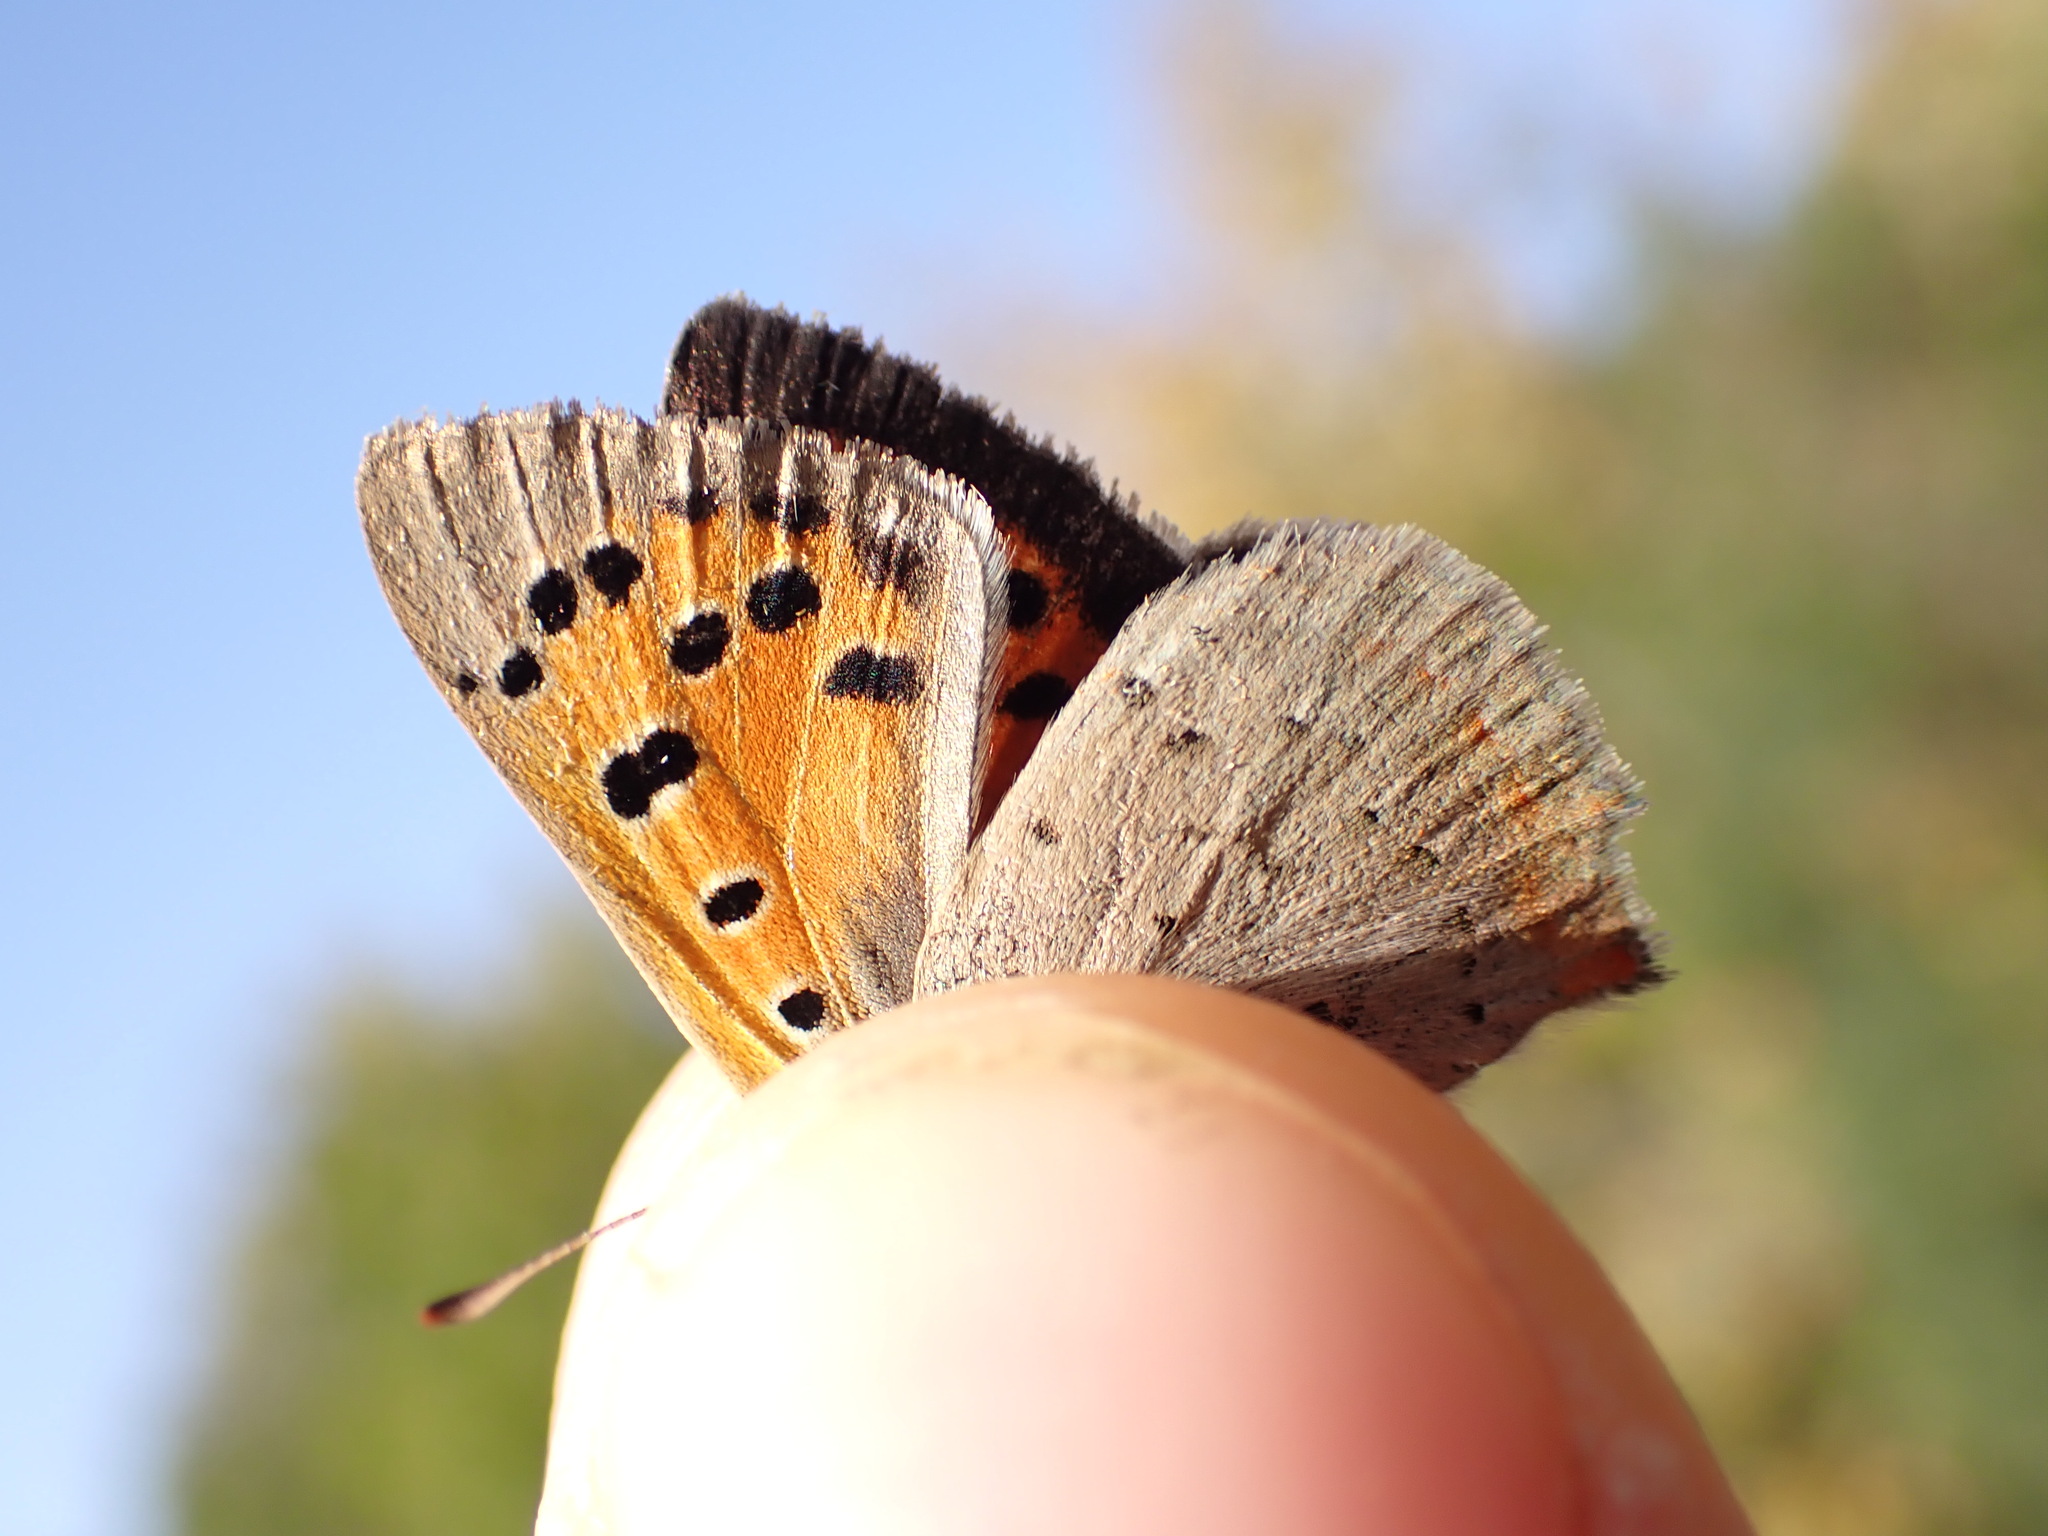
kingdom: Animalia
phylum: Arthropoda
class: Insecta
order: Lepidoptera
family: Lycaenidae
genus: Lycaena
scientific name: Lycaena phlaeas
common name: Small copper
